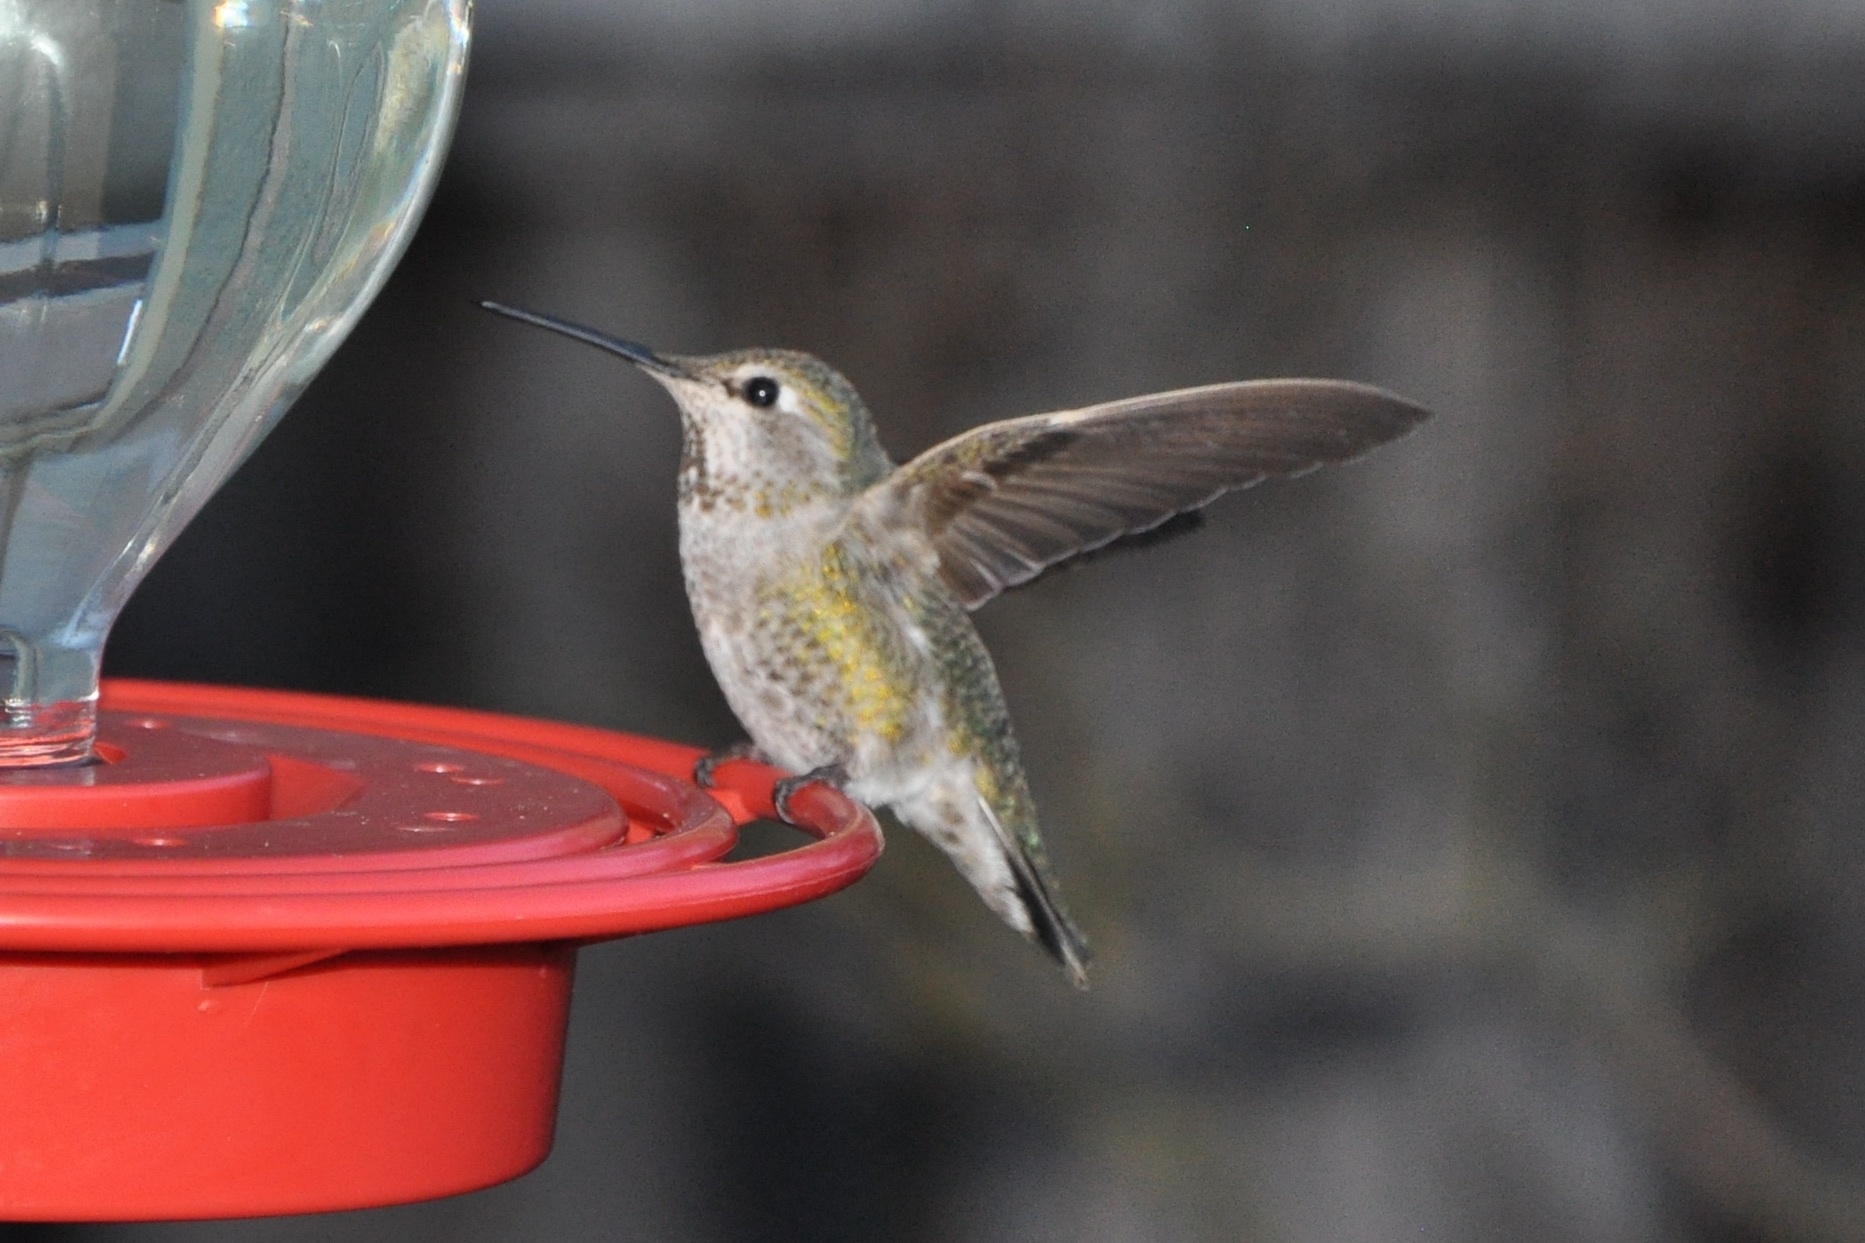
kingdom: Animalia
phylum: Chordata
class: Aves
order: Apodiformes
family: Trochilidae
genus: Calypte
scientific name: Calypte anna
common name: Anna's hummingbird
